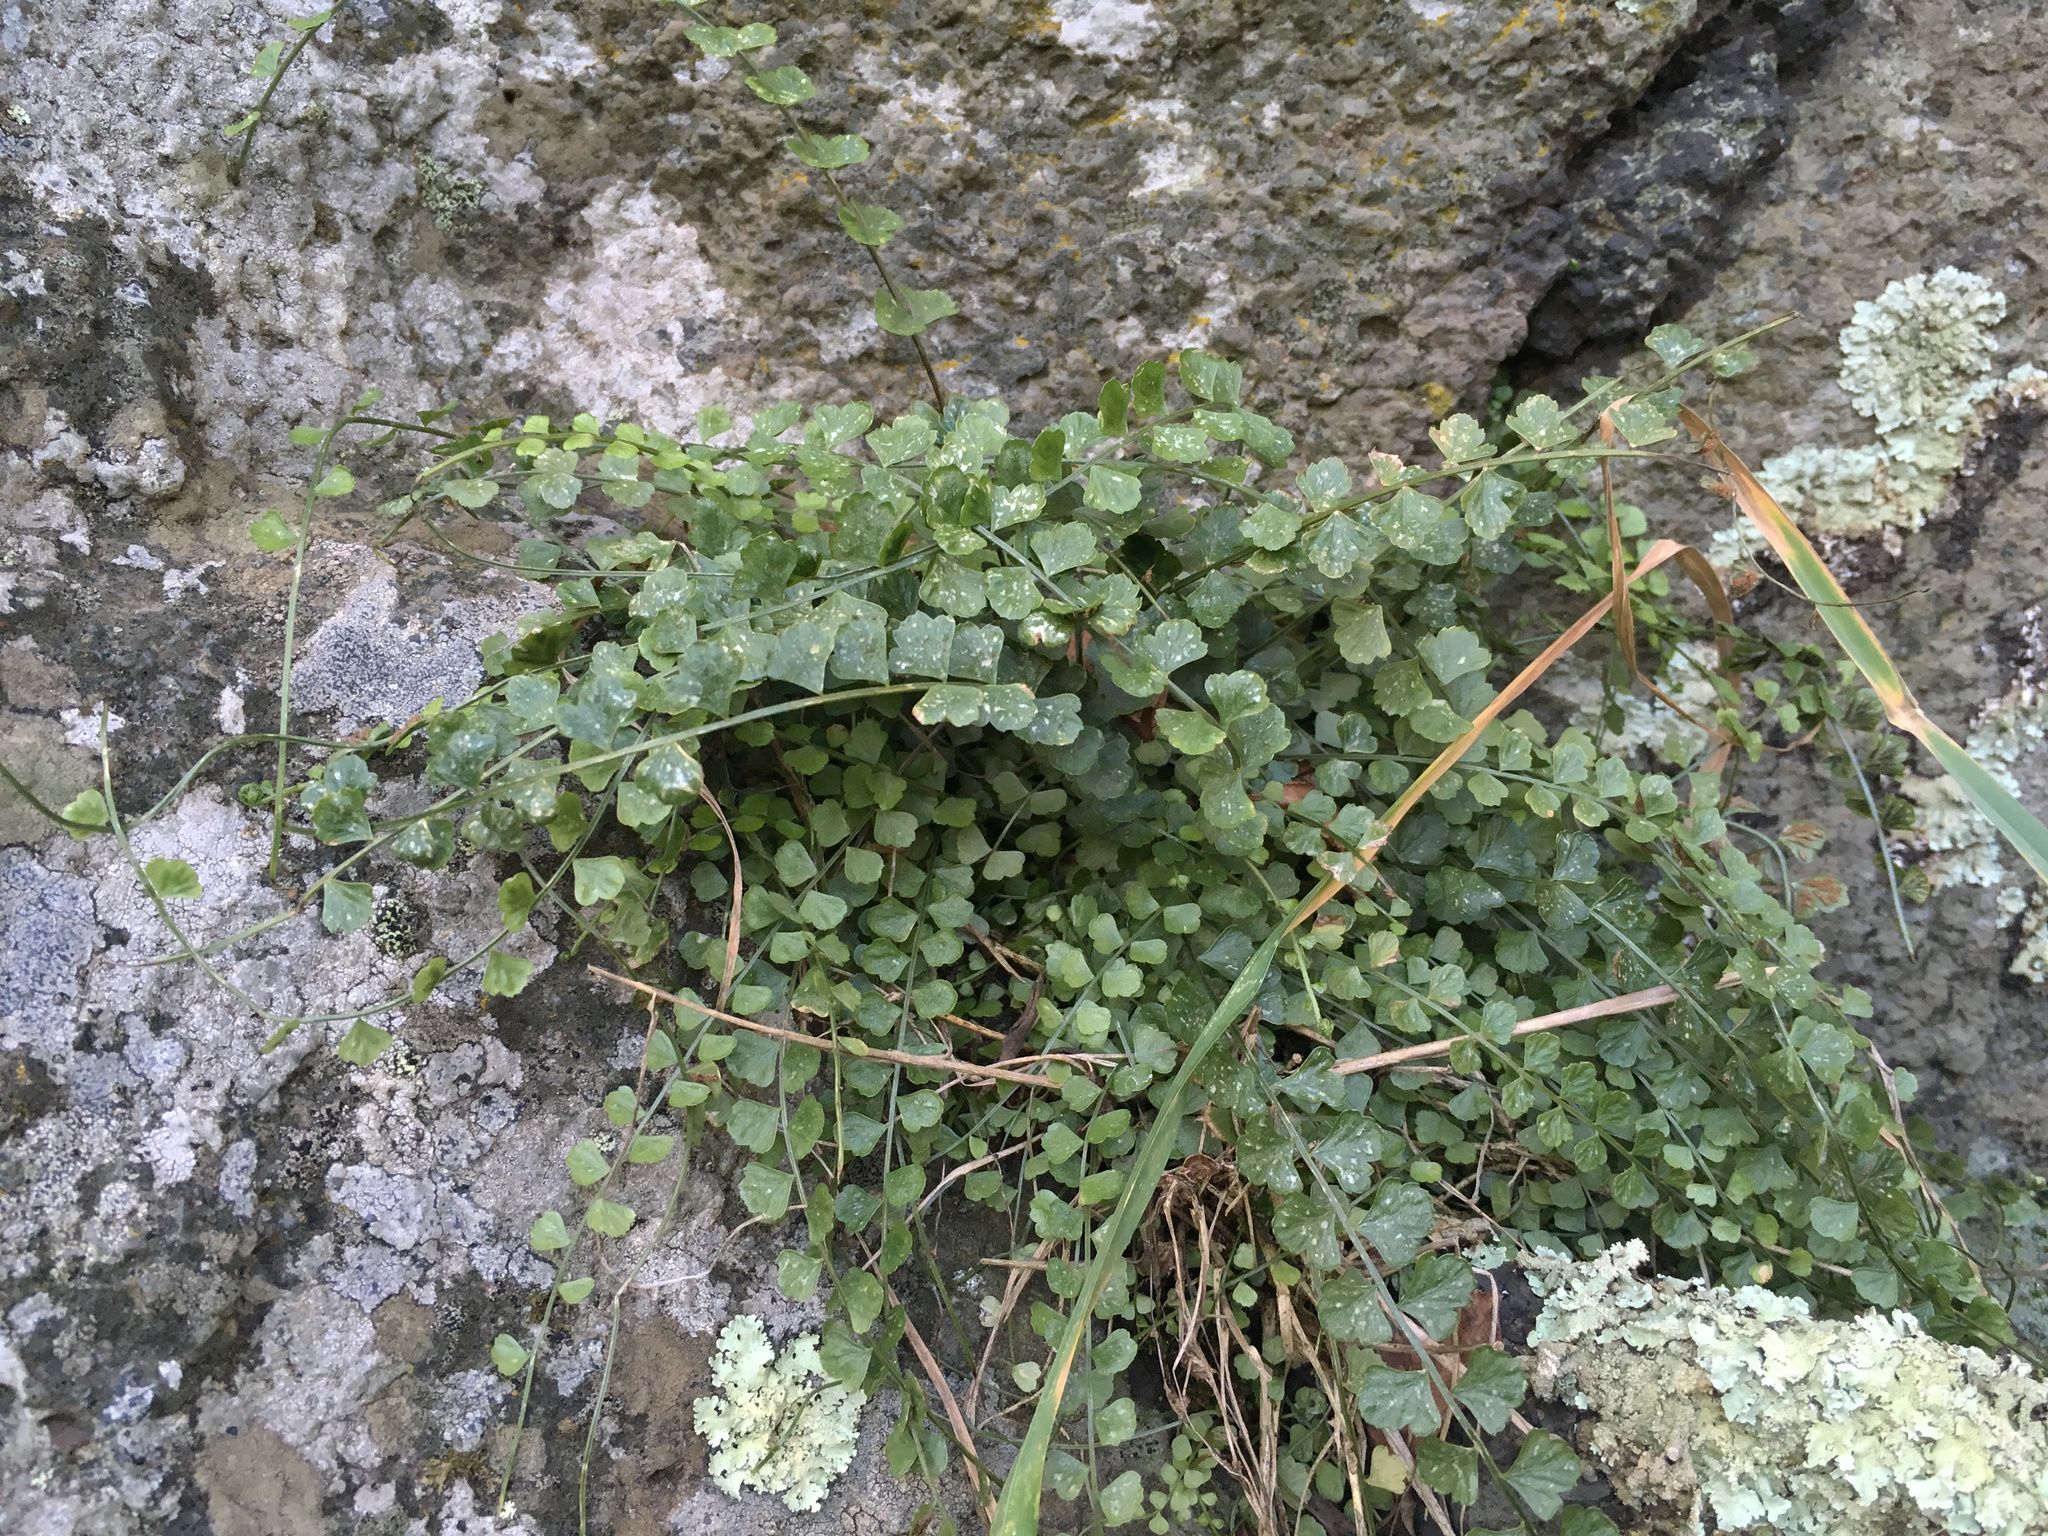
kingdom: Plantae
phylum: Tracheophyta
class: Polypodiopsida
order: Polypodiales
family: Aspleniaceae
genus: Asplenium
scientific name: Asplenium flabellifolium
